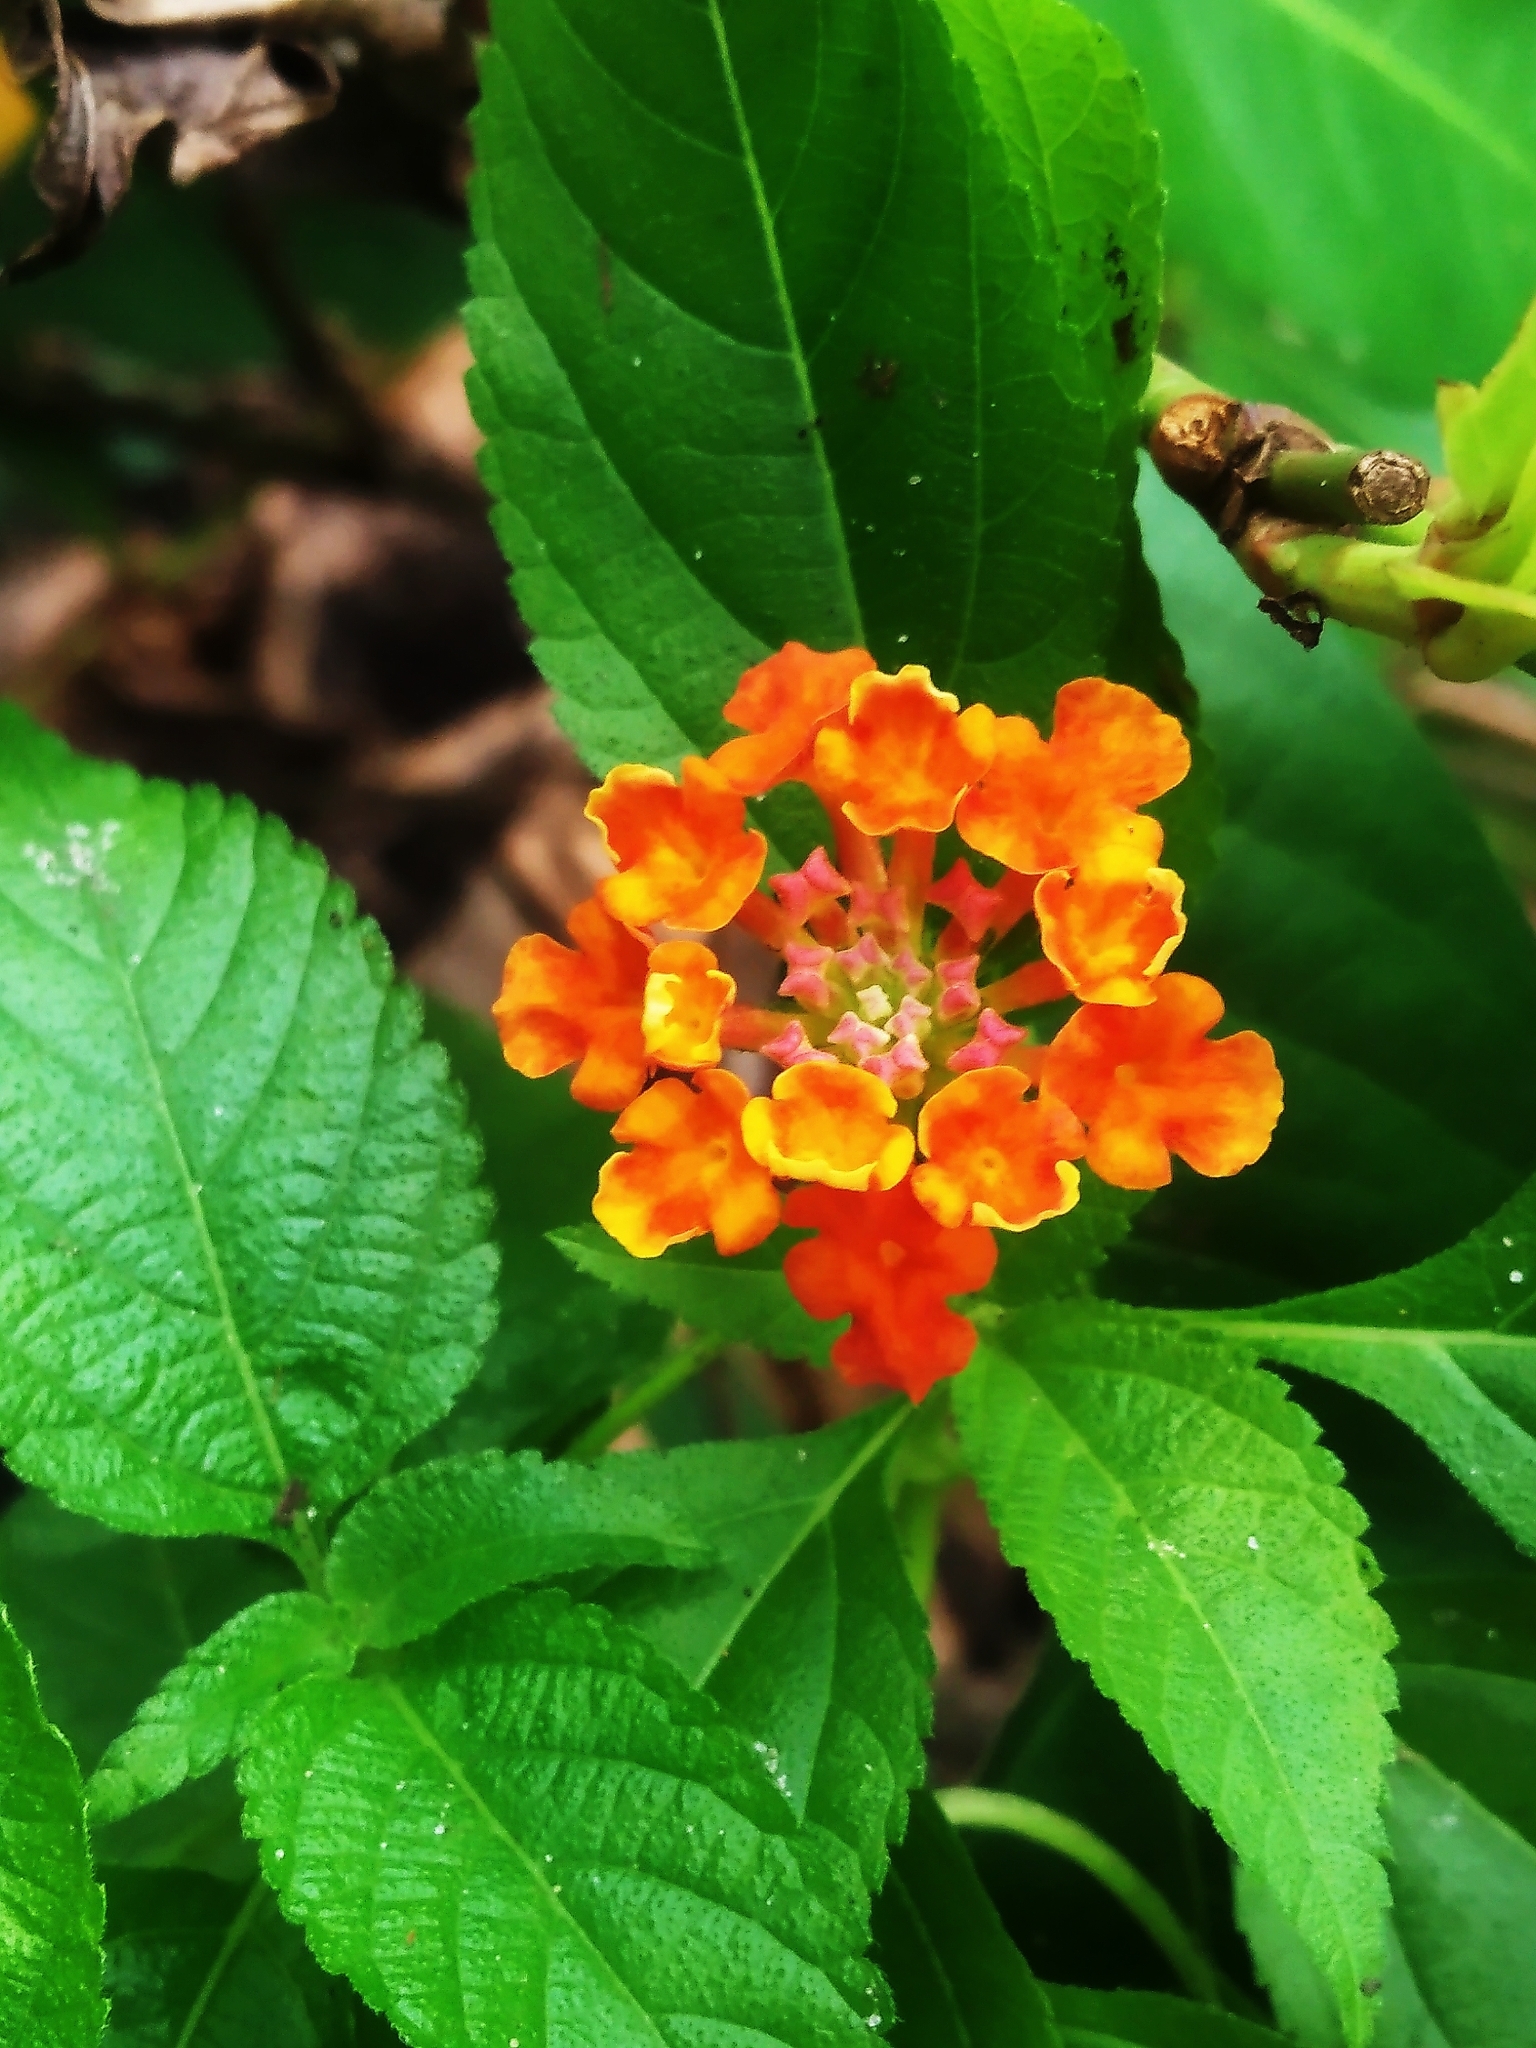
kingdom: Plantae
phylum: Tracheophyta
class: Magnoliopsida
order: Lamiales
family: Verbenaceae
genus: Lantana
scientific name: Lantana camara
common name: Lantana
